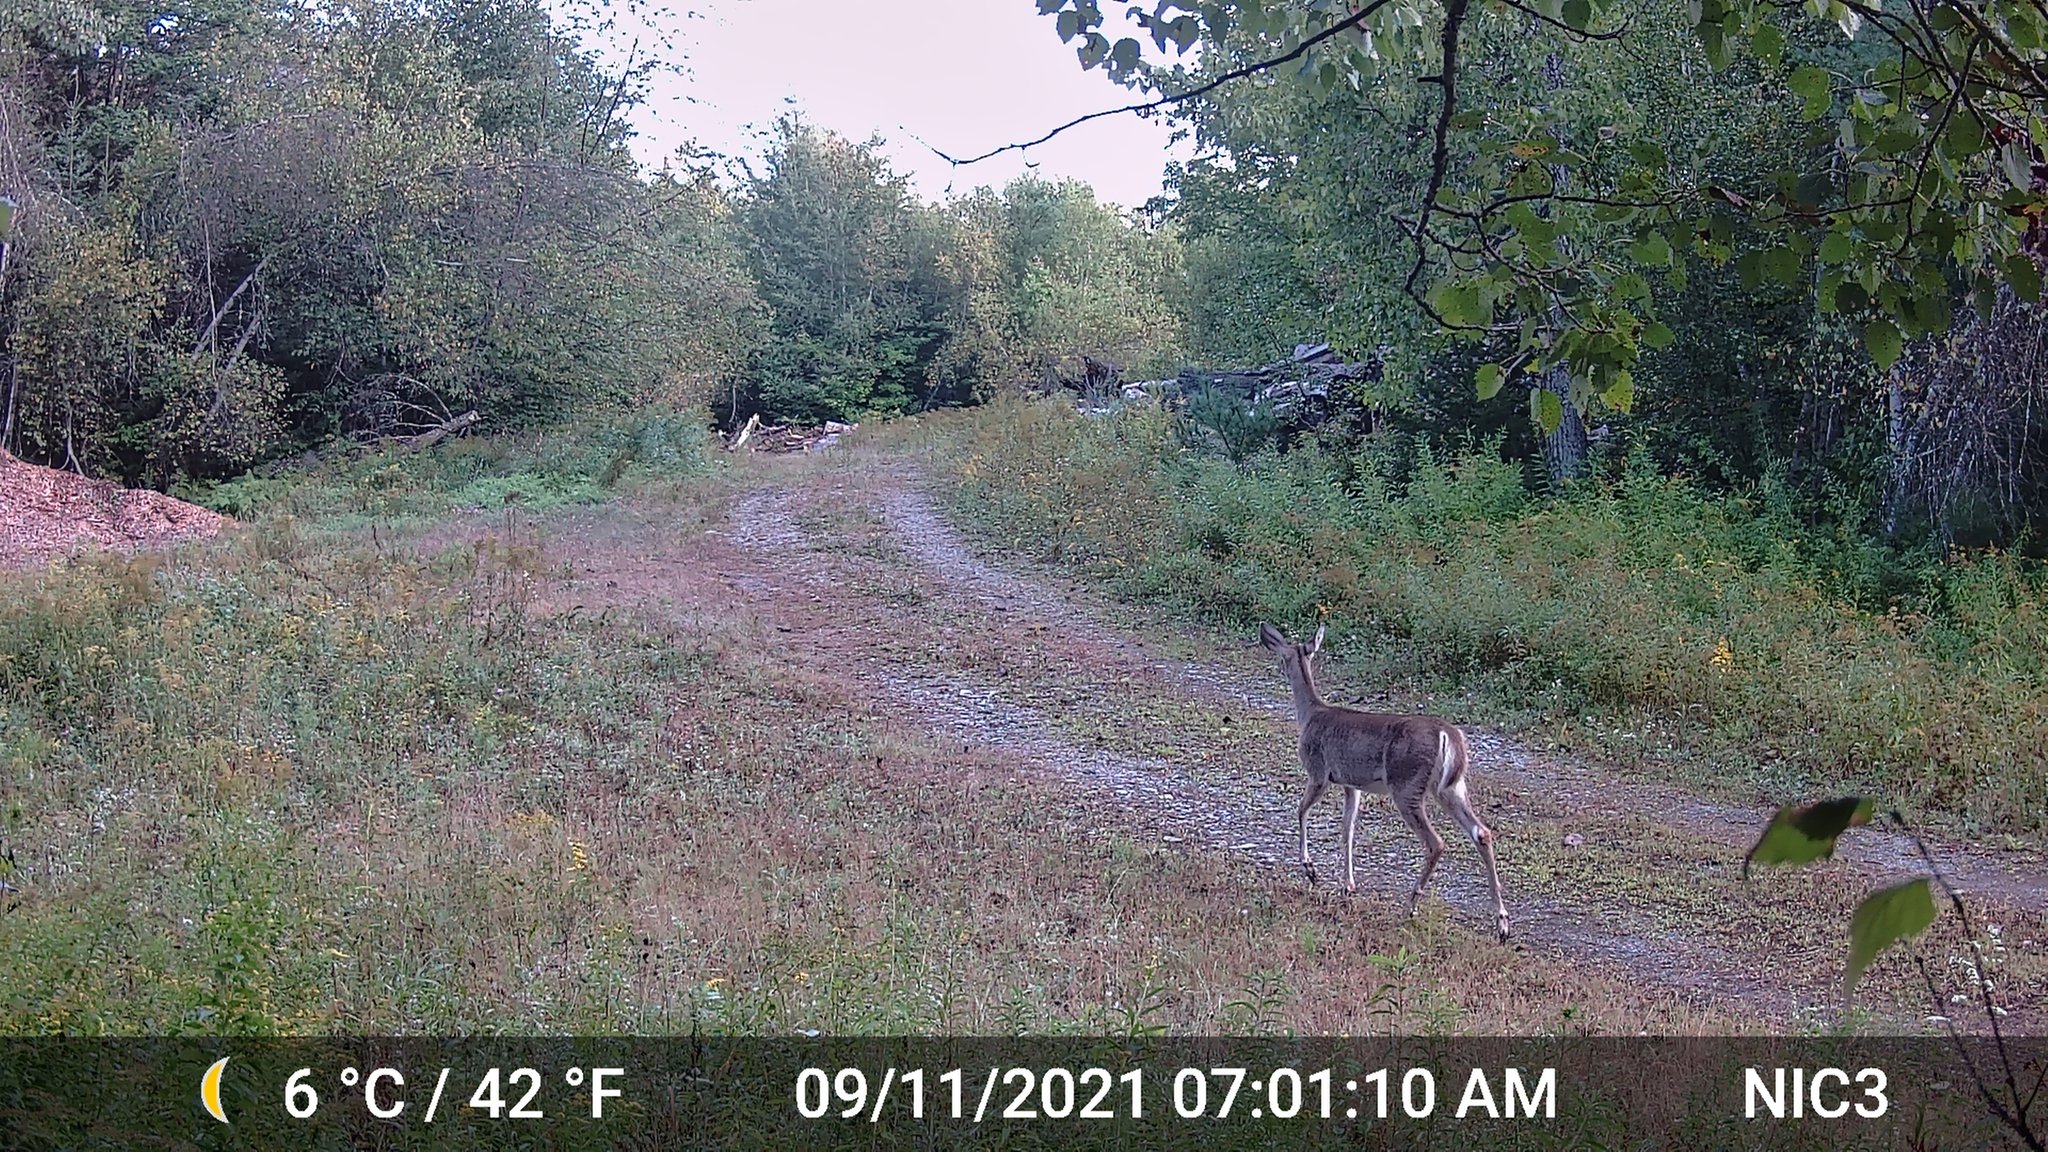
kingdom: Animalia
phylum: Chordata
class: Mammalia
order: Artiodactyla
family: Cervidae
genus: Odocoileus
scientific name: Odocoileus virginianus
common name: White-tailed deer
